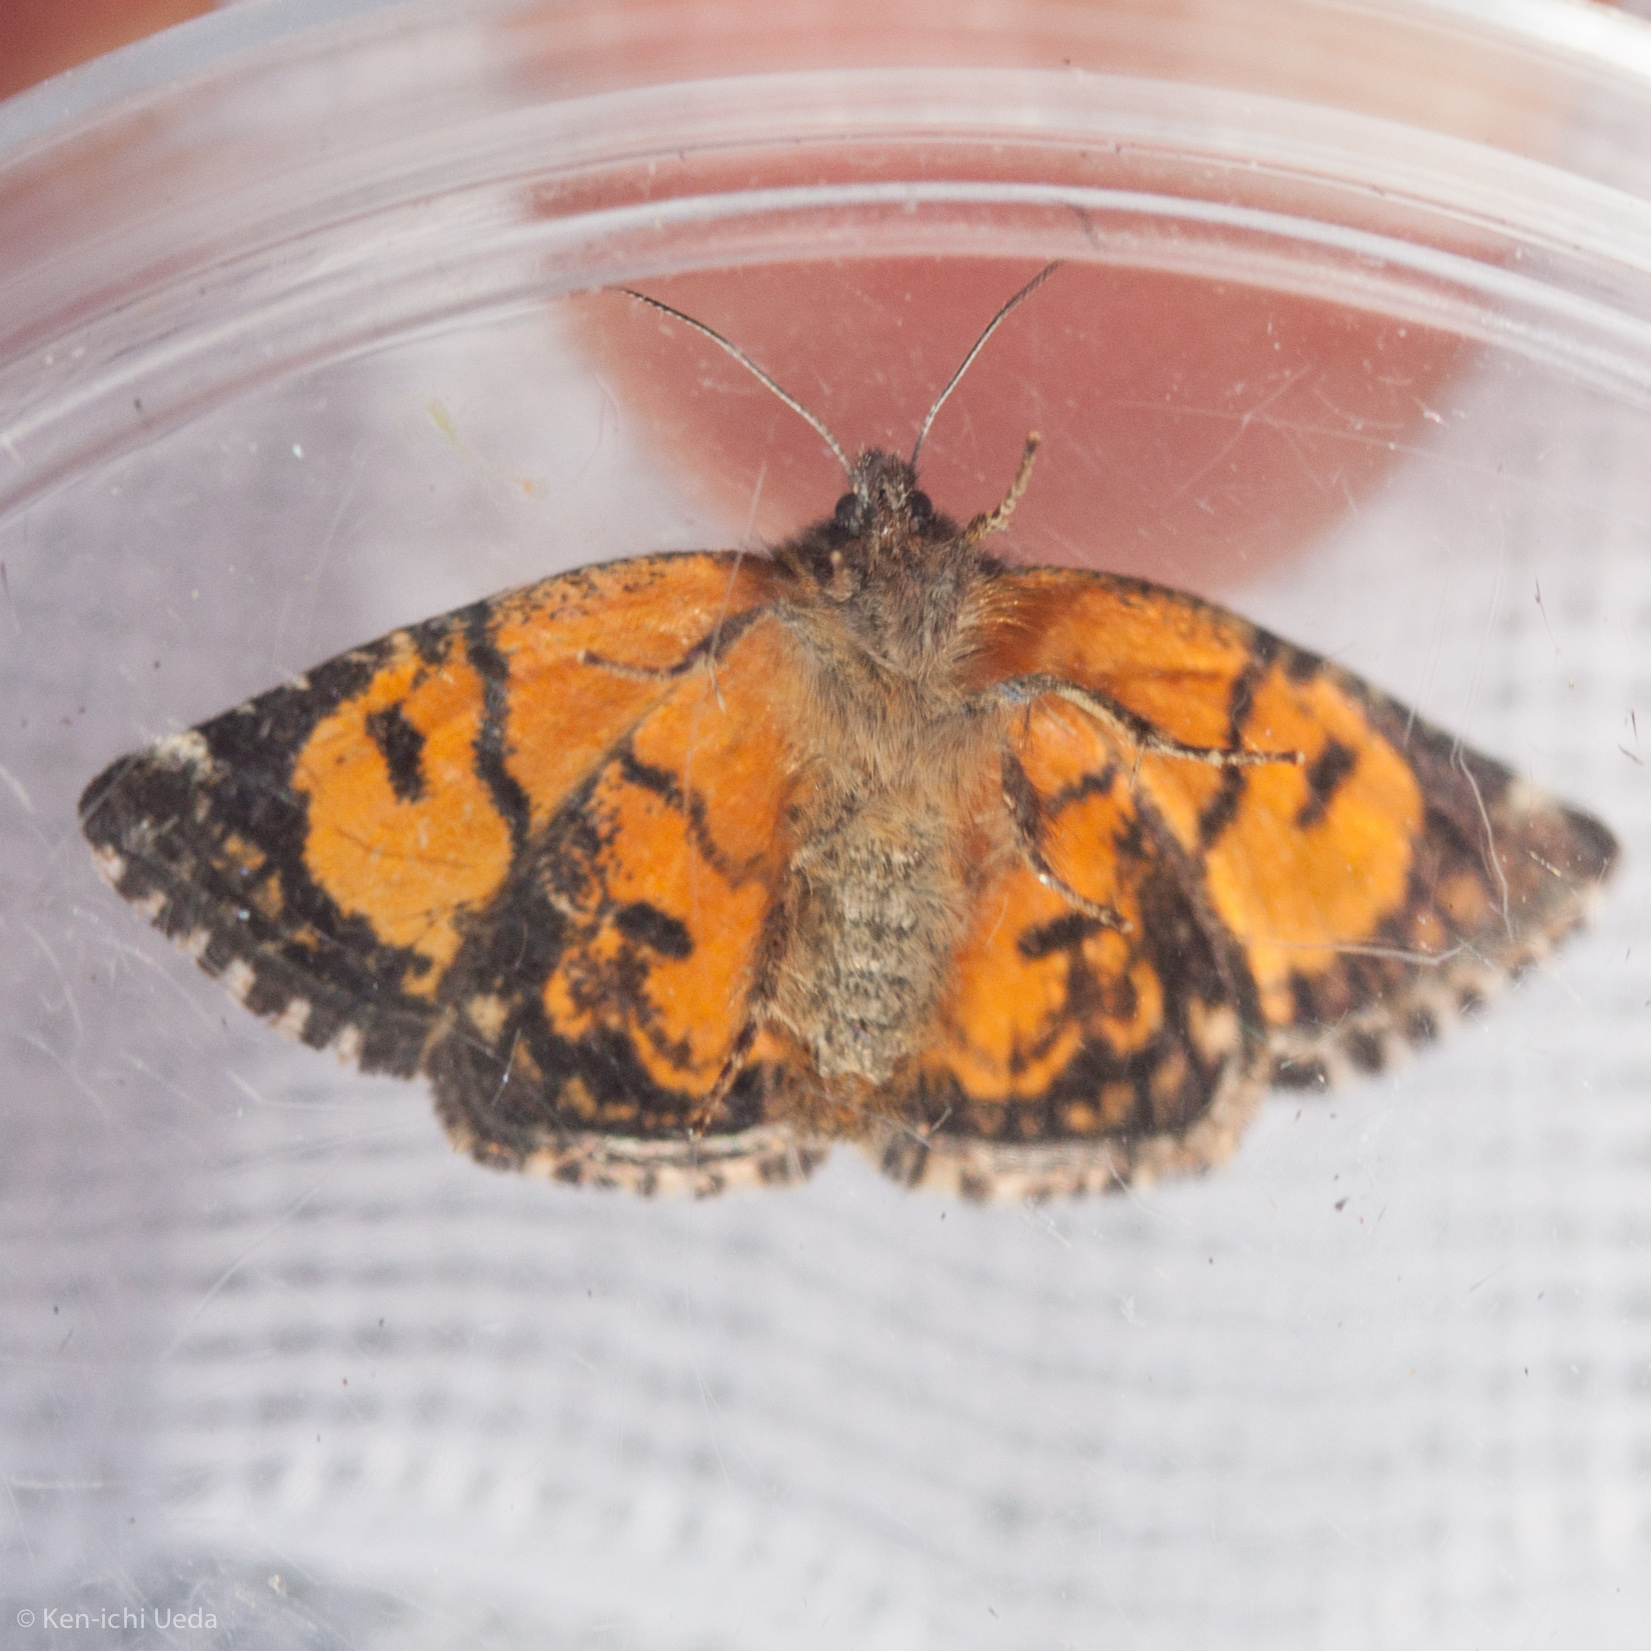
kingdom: Animalia
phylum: Arthropoda
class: Insecta
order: Lepidoptera
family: Noctuidae
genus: Annaphila
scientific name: Annaphila decia
